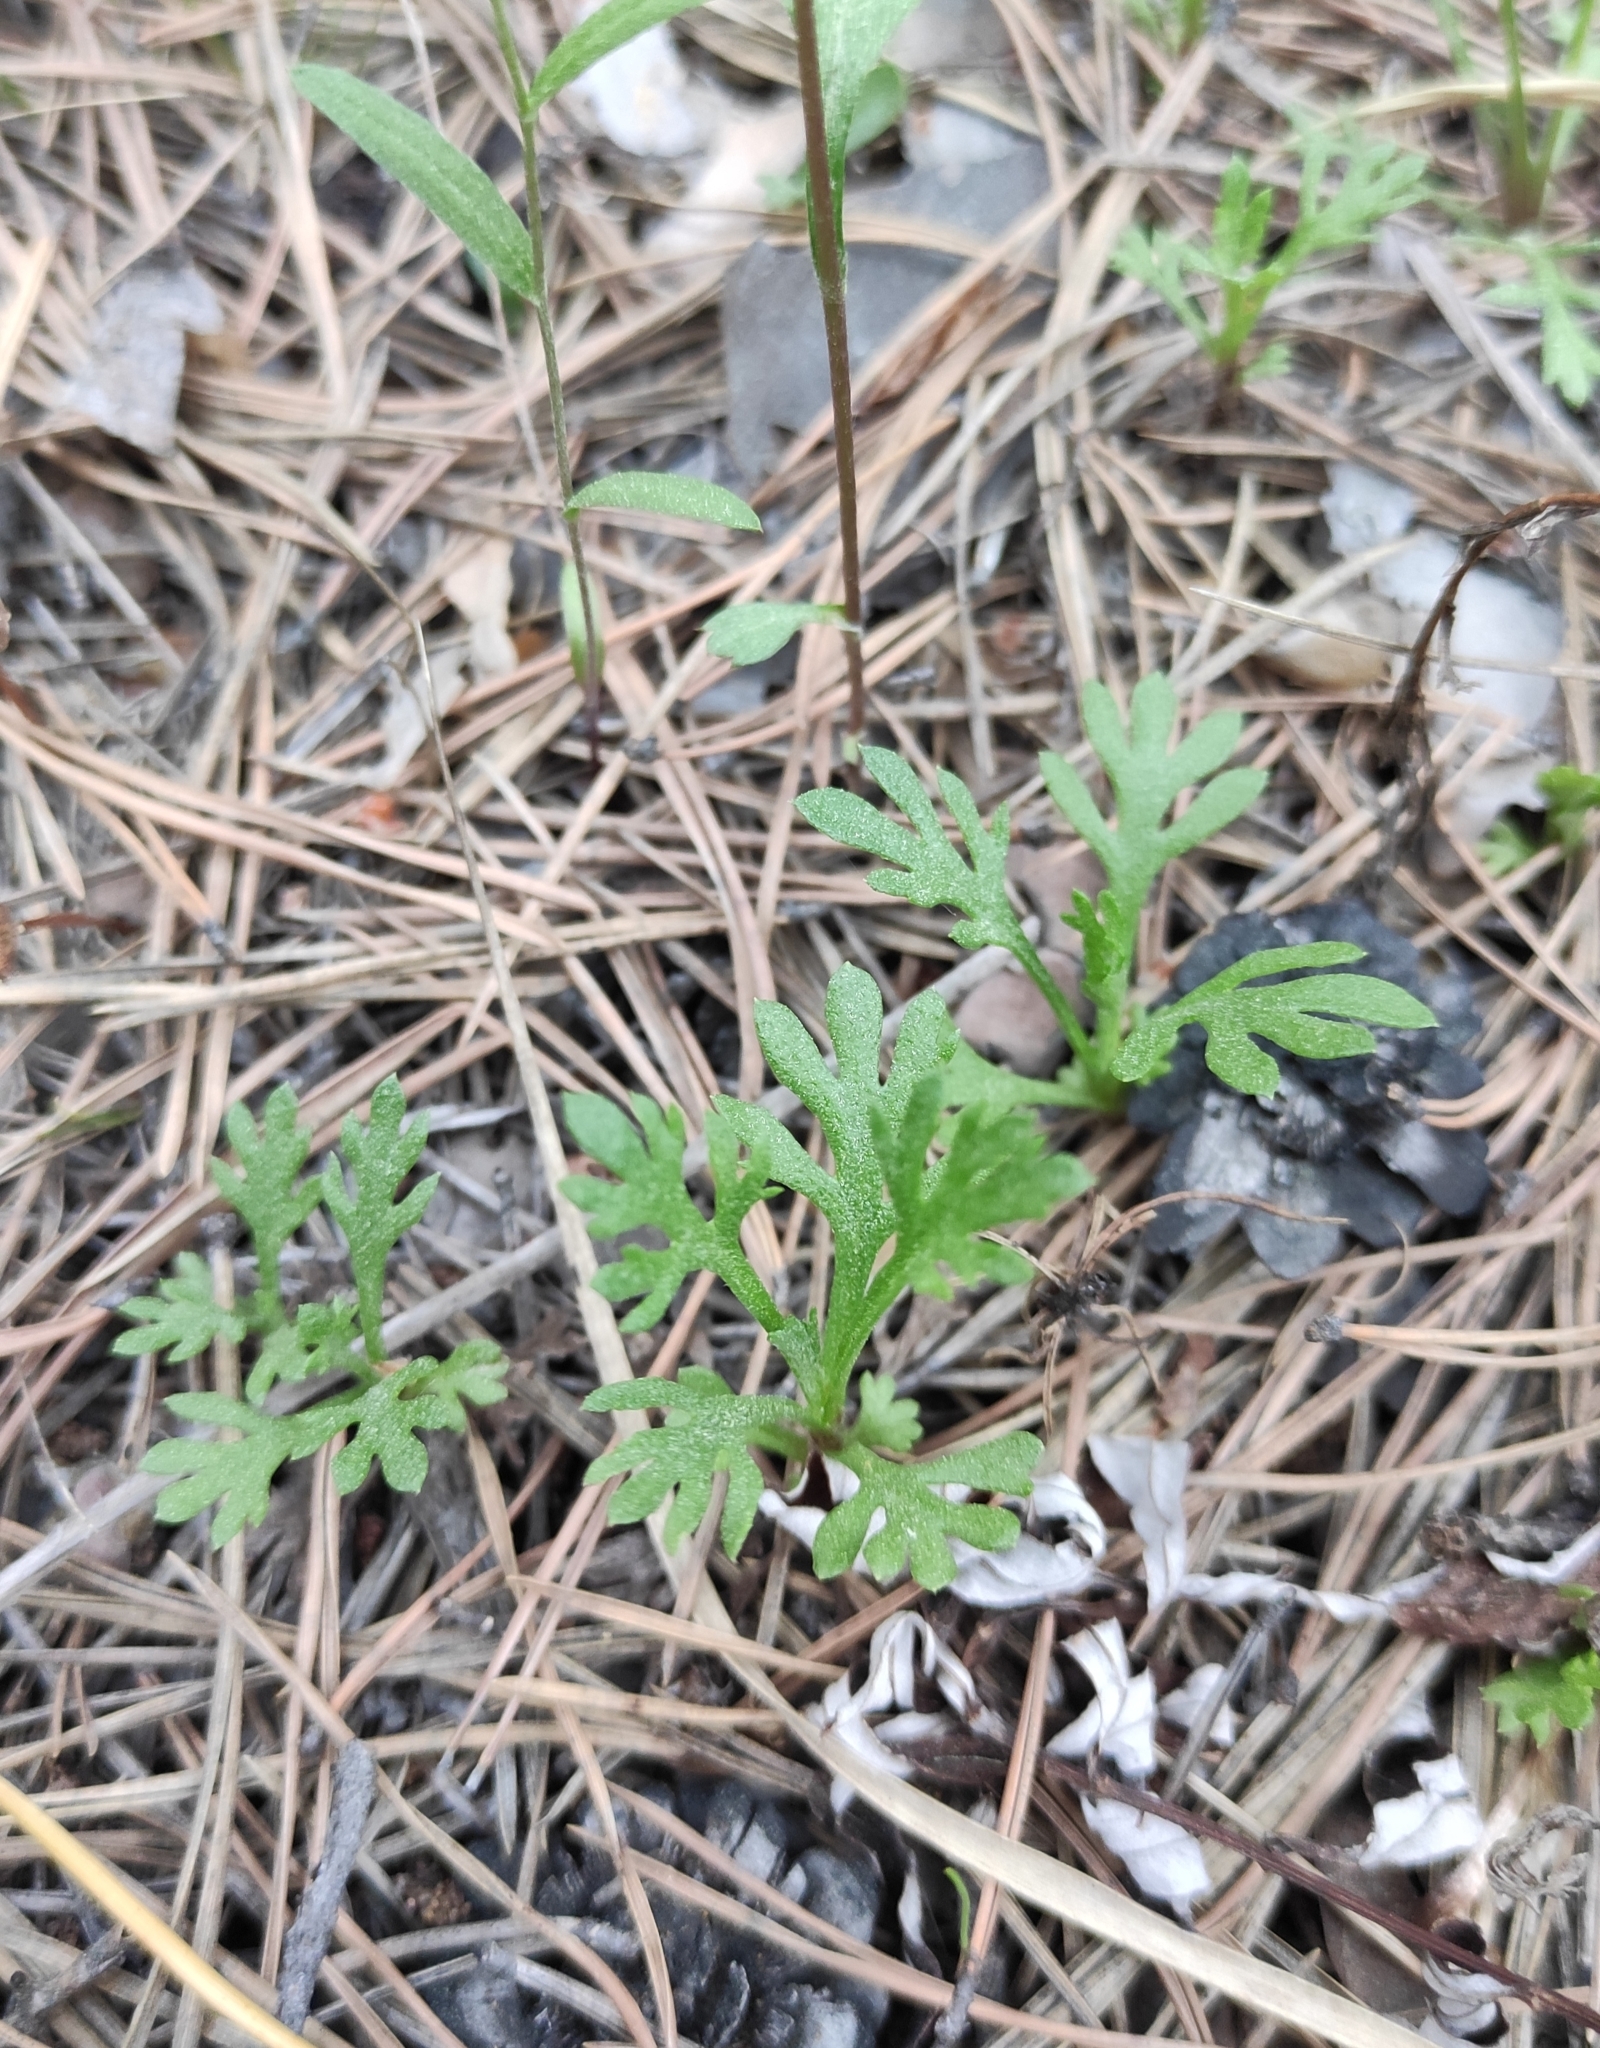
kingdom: Plantae
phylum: Tracheophyta
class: Magnoliopsida
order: Asterales
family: Asteraceae
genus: Chrysanthemum
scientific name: Chrysanthemum zawadzkii
